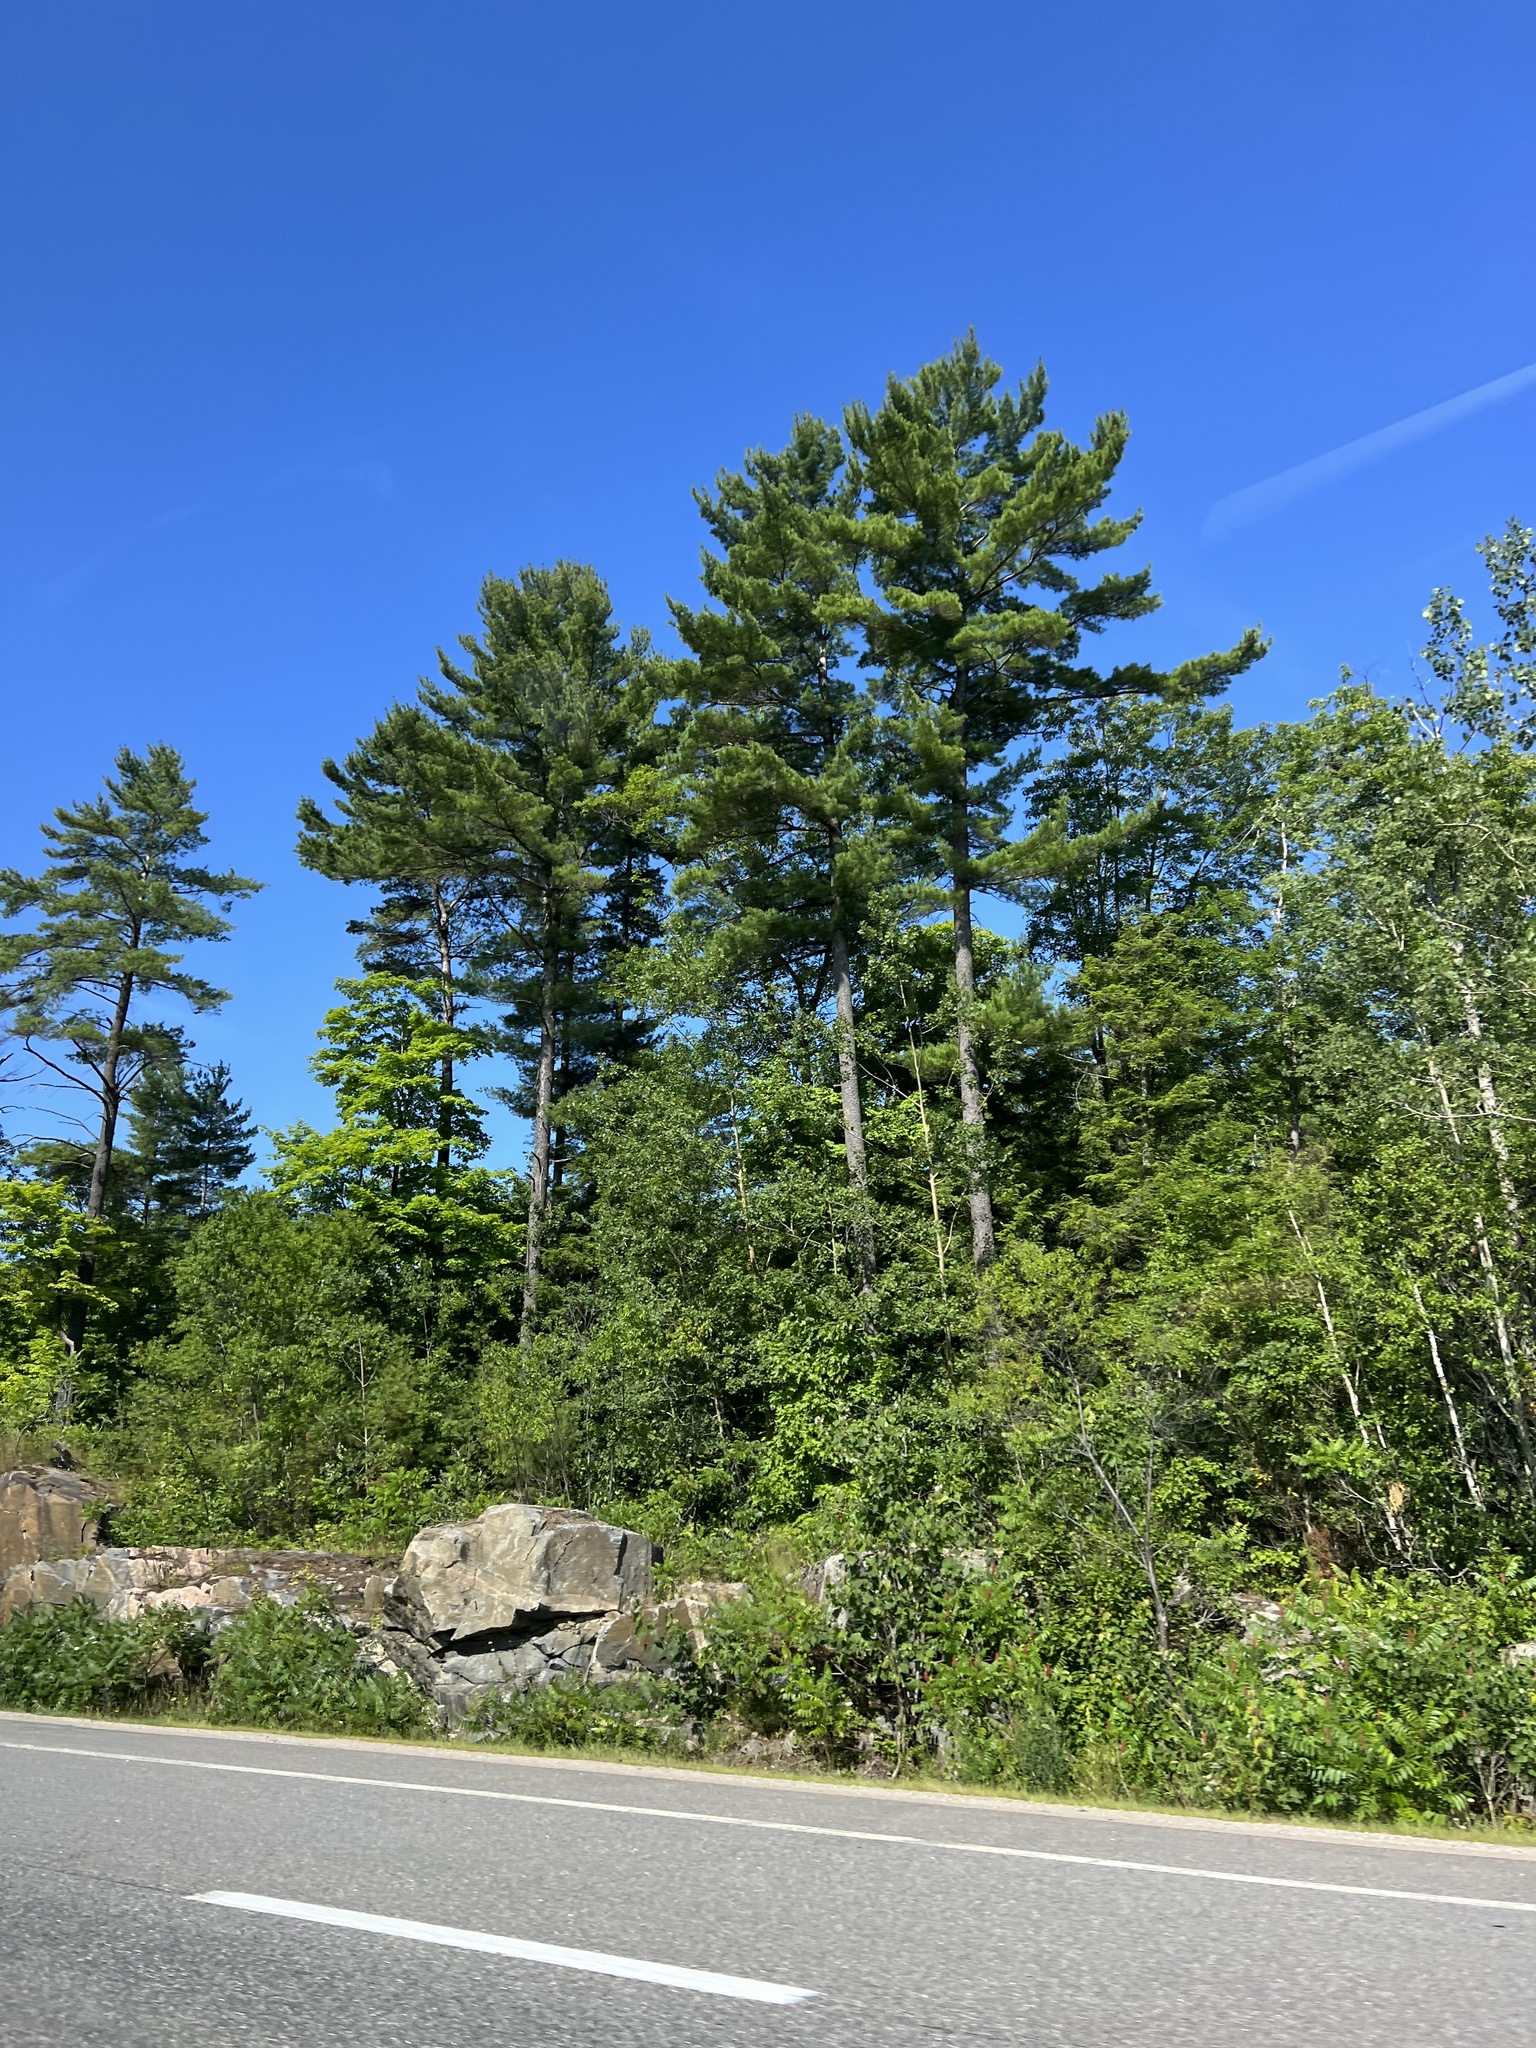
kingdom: Plantae
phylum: Tracheophyta
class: Pinopsida
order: Pinales
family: Pinaceae
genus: Pinus
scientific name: Pinus strobus
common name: Weymouth pine
